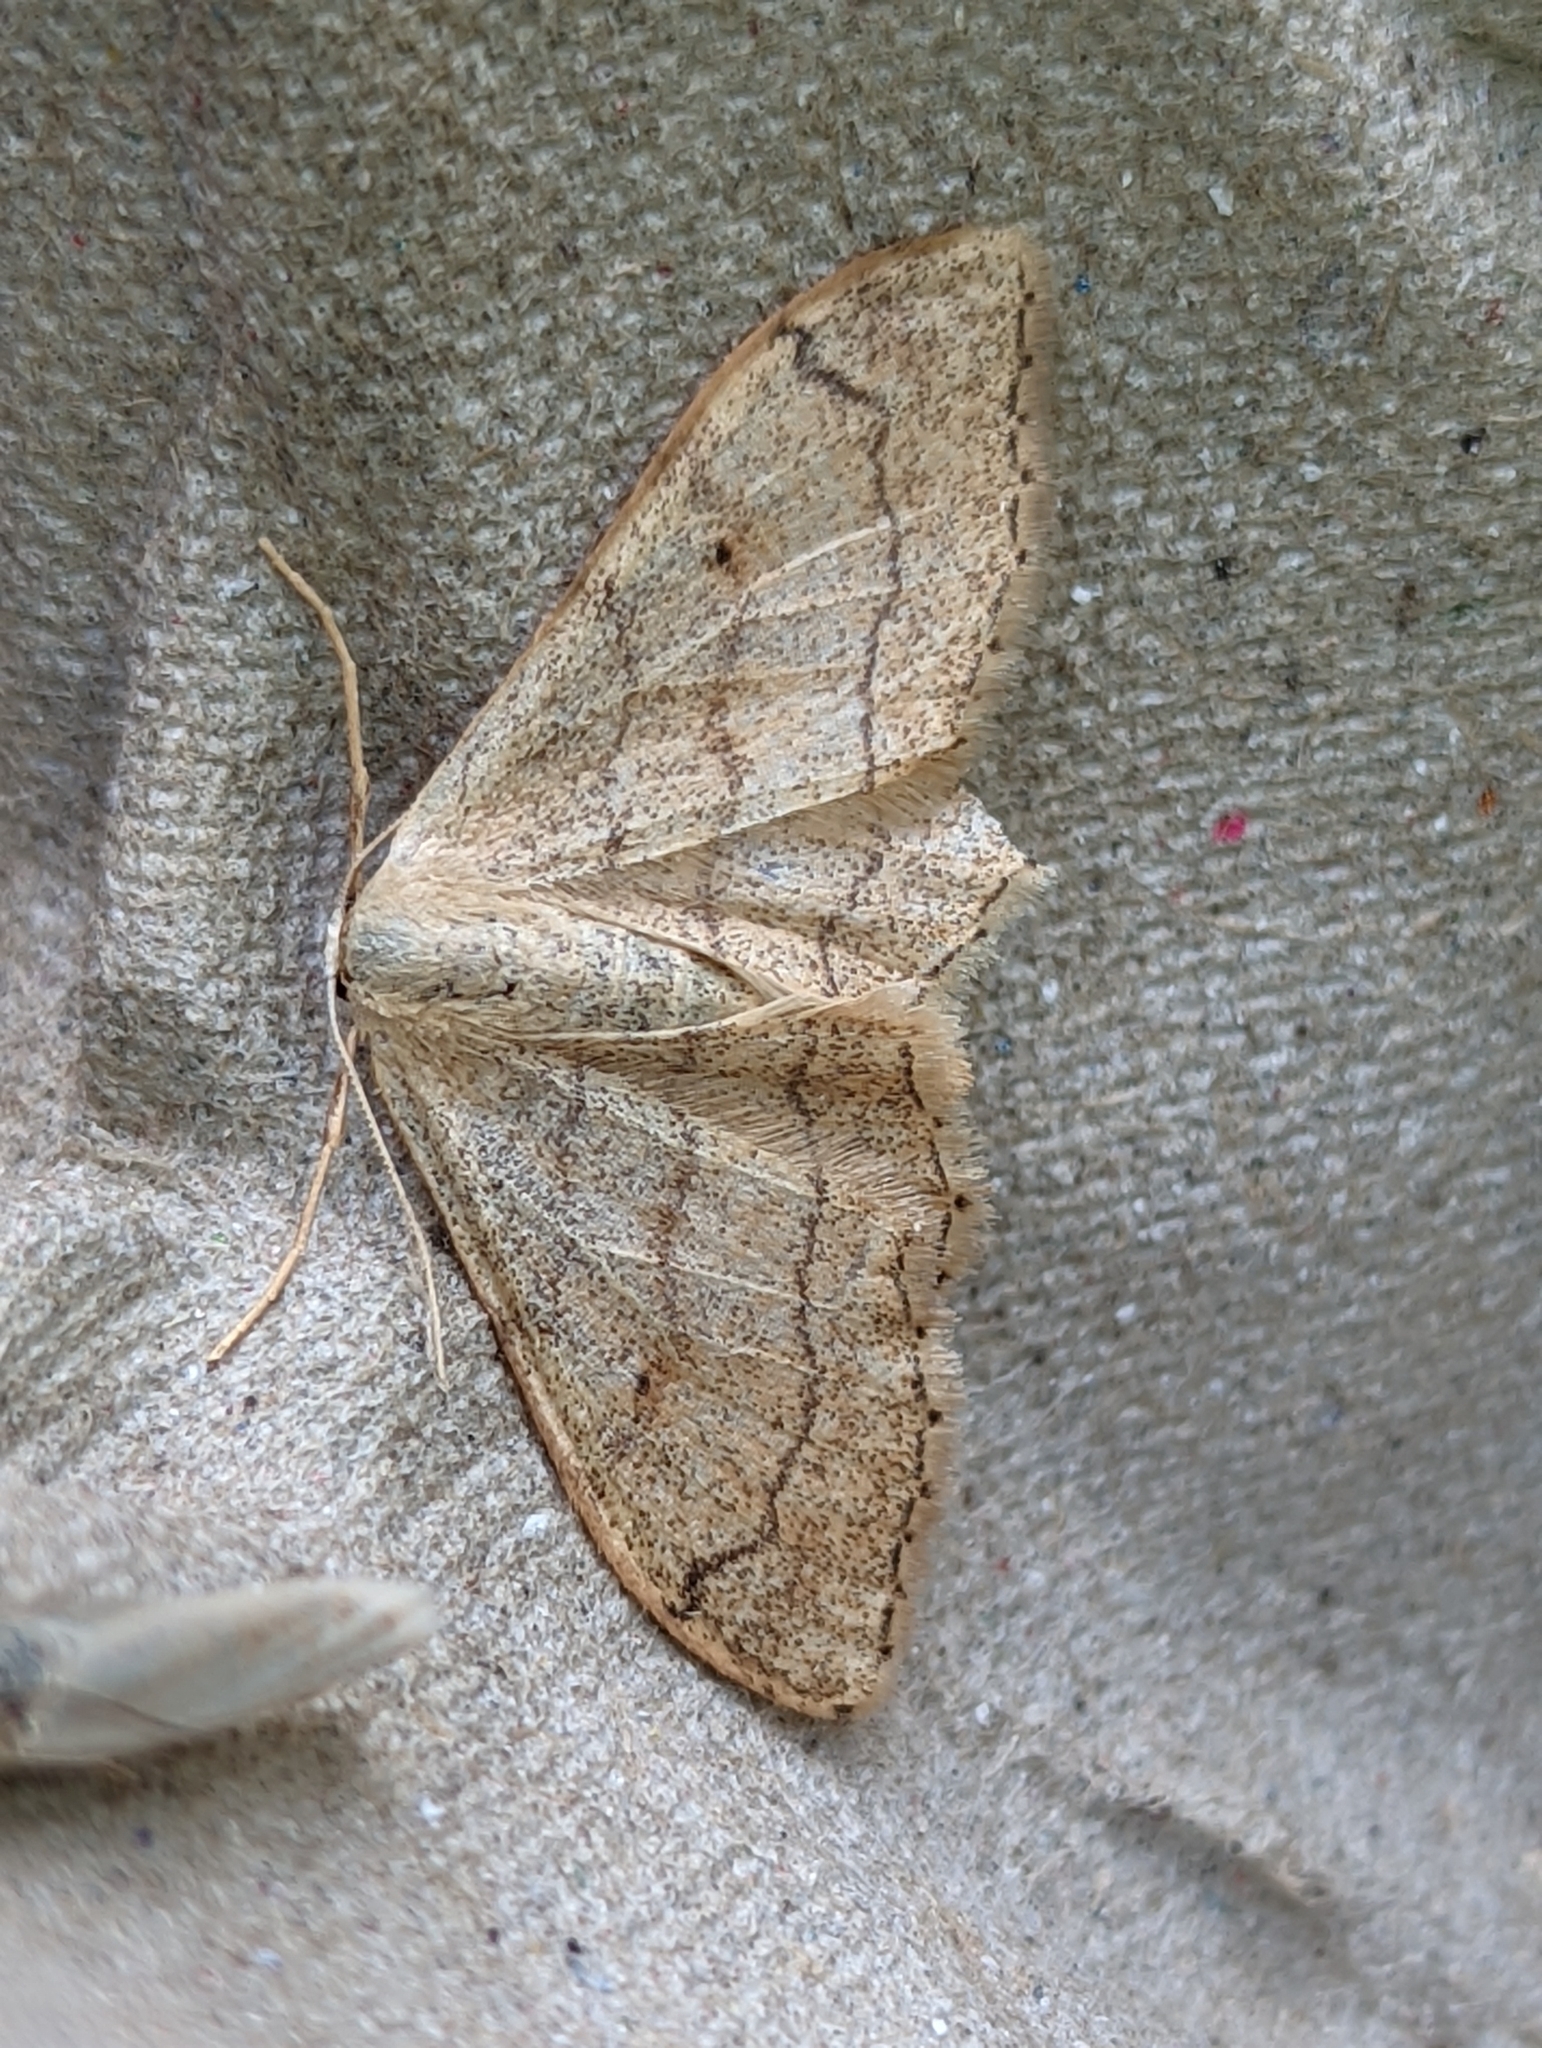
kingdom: Animalia
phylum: Arthropoda
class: Insecta
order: Lepidoptera
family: Geometridae
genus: Idaea
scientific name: Idaea aversata
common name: Riband wave
